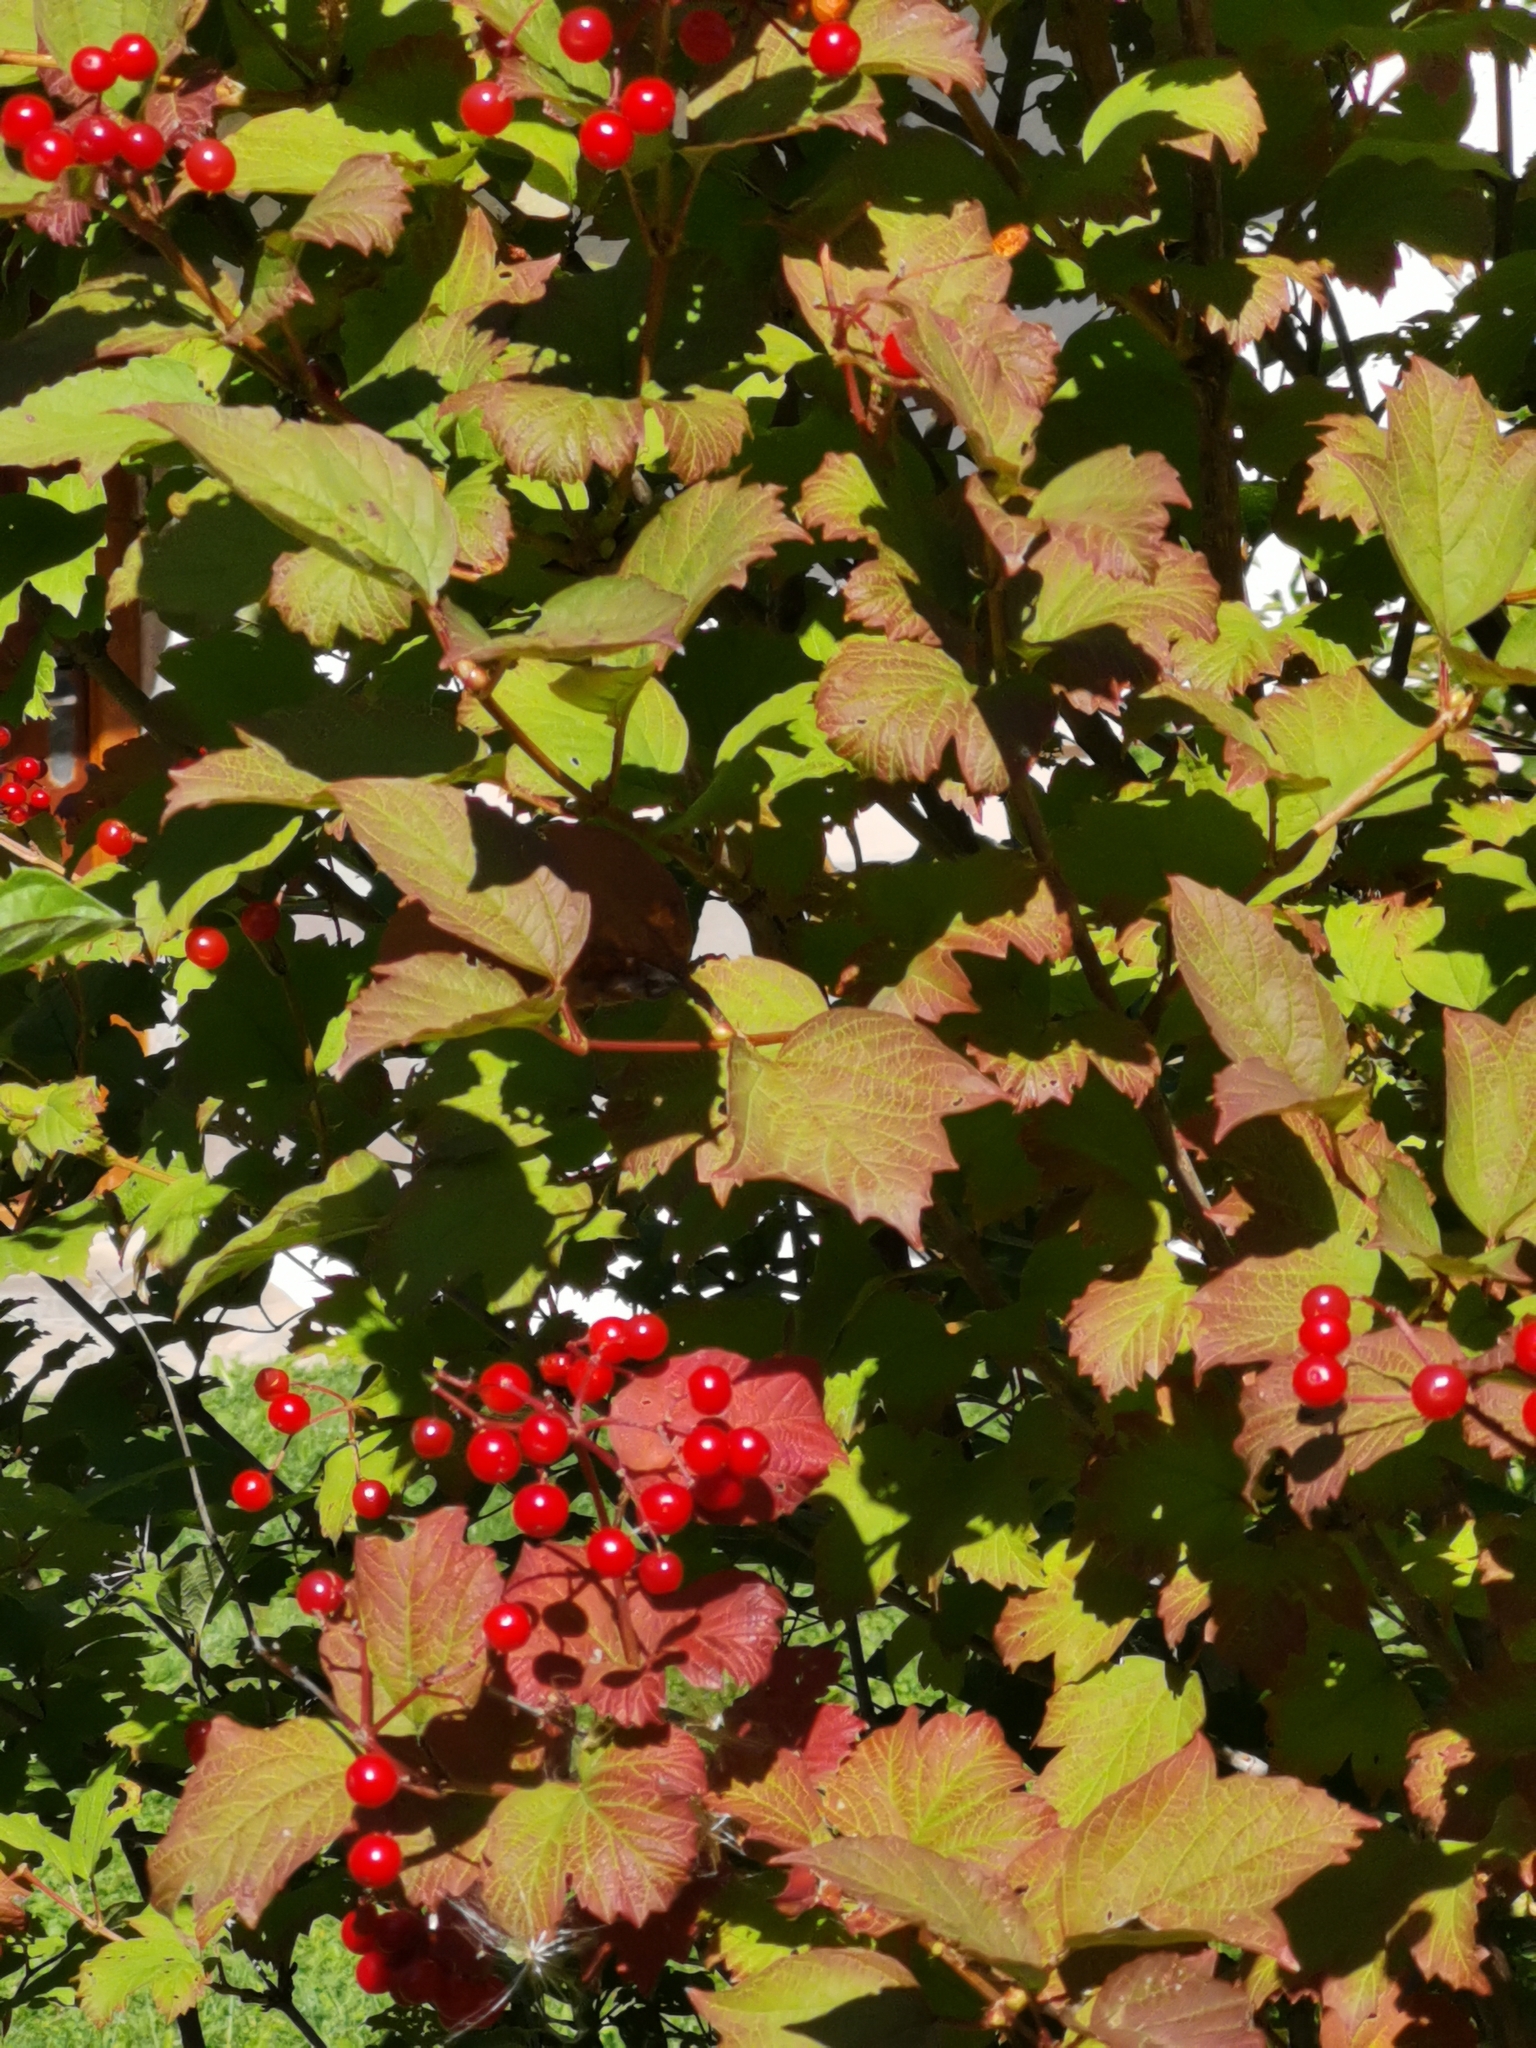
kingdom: Plantae
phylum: Tracheophyta
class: Magnoliopsida
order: Dipsacales
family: Viburnaceae
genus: Viburnum
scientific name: Viburnum opulus
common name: Guelder-rose
